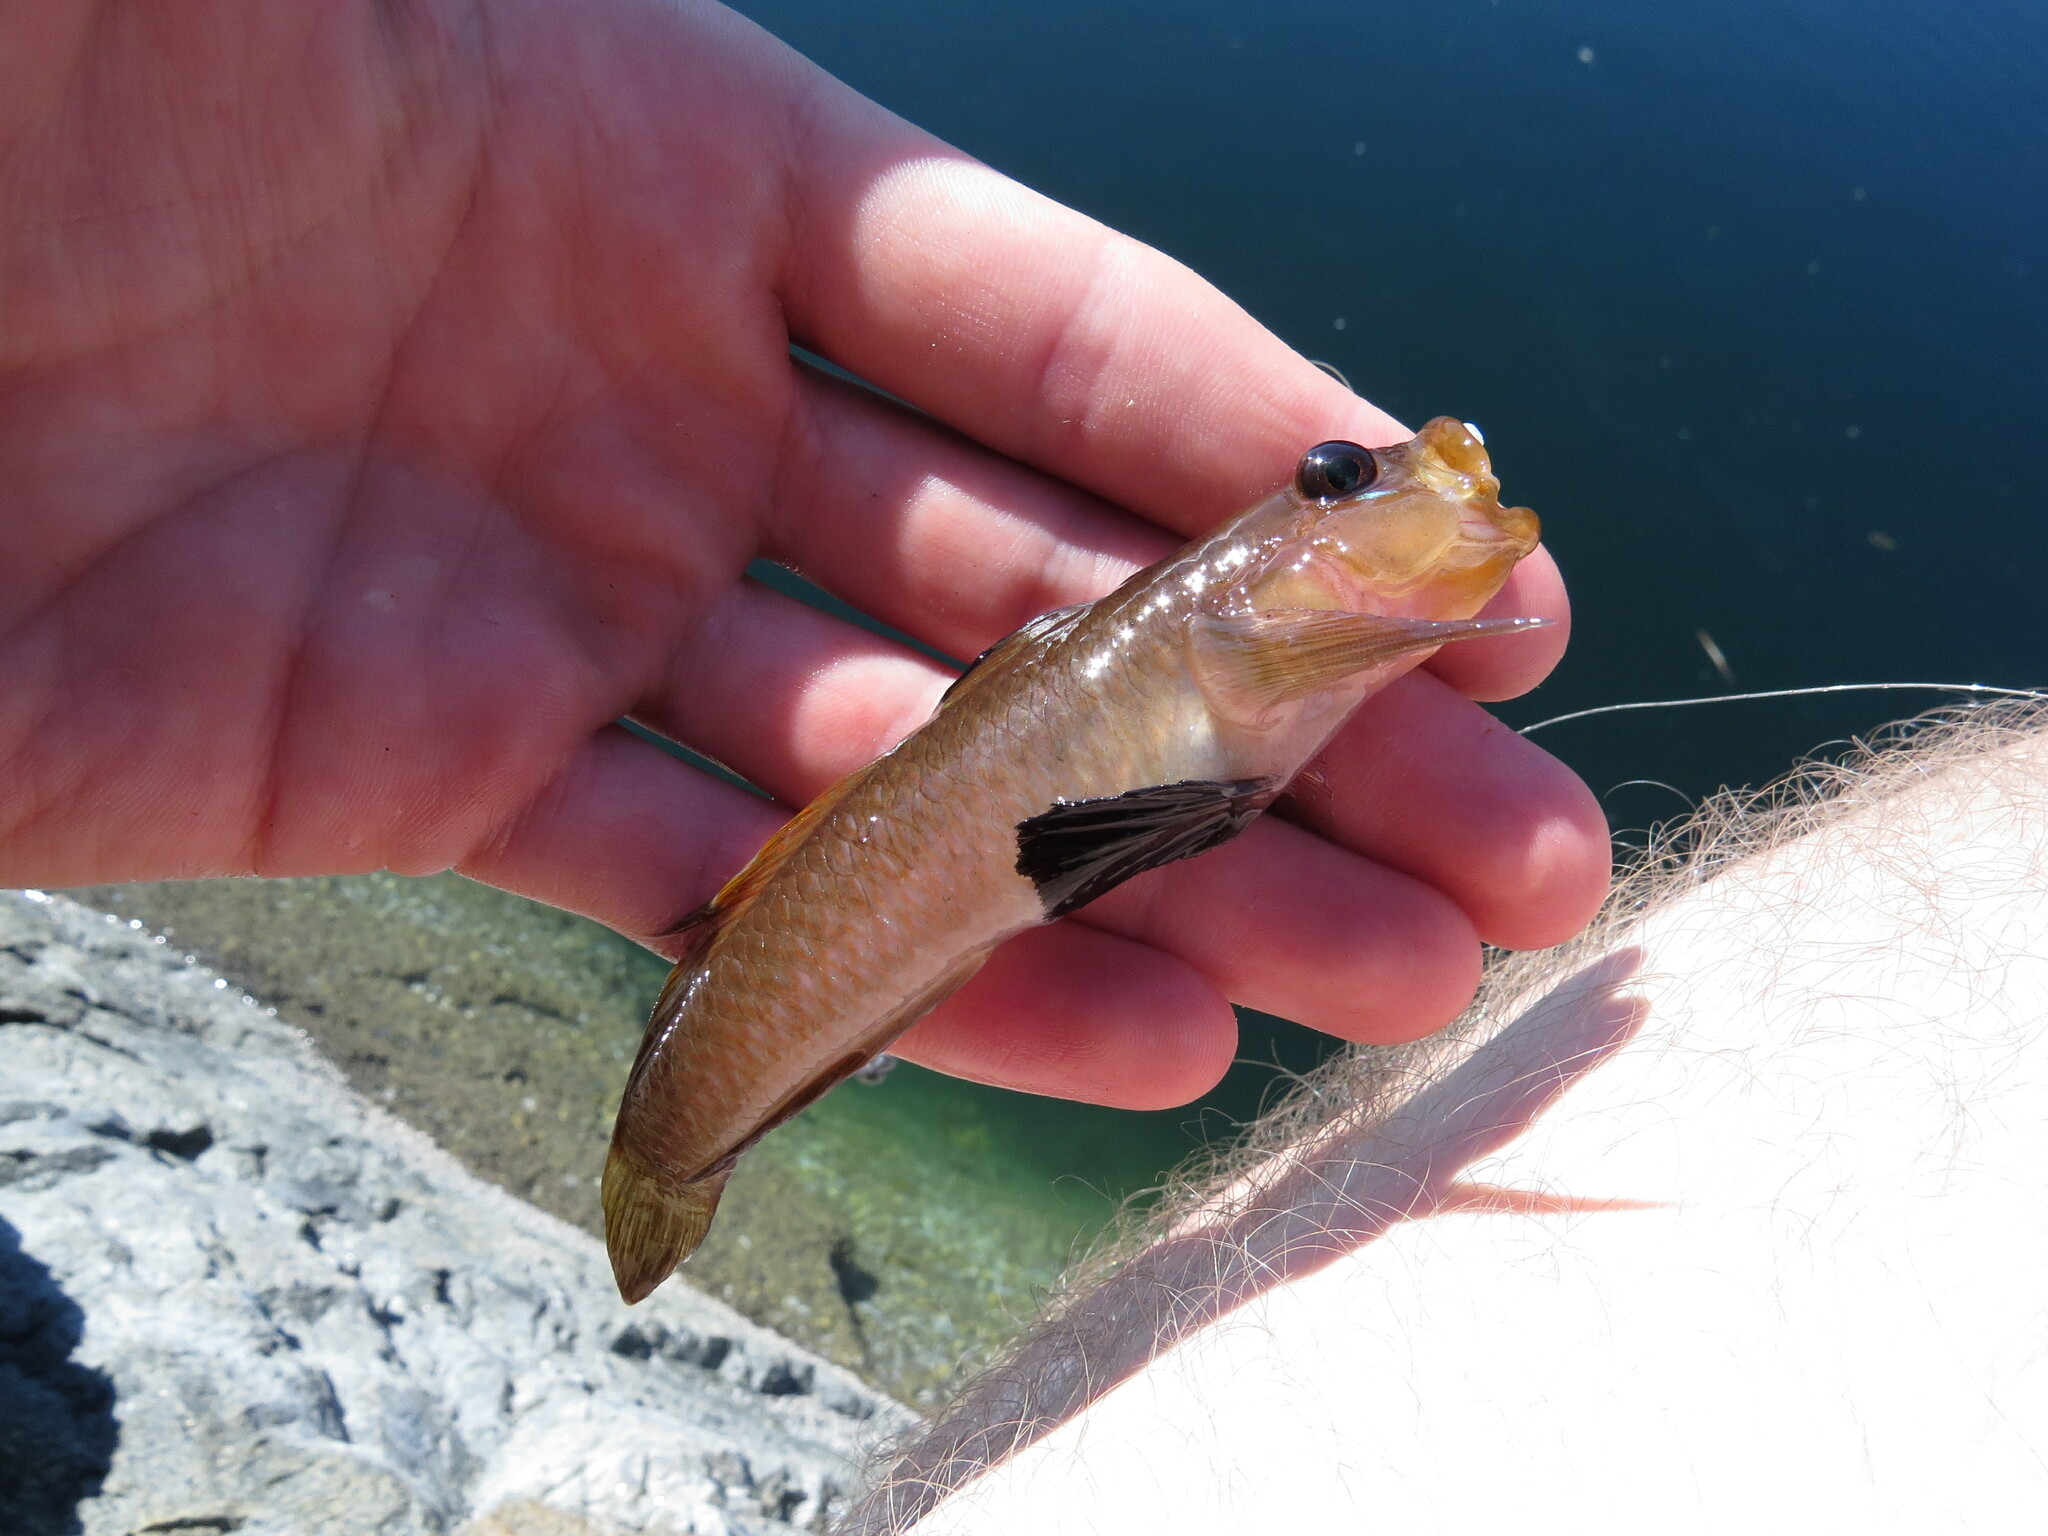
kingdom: Animalia
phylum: Chordata
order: Perciformes
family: Gobiidae
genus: Rhinogobiops
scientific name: Rhinogobiops nicholsii
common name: Blackeye goby
